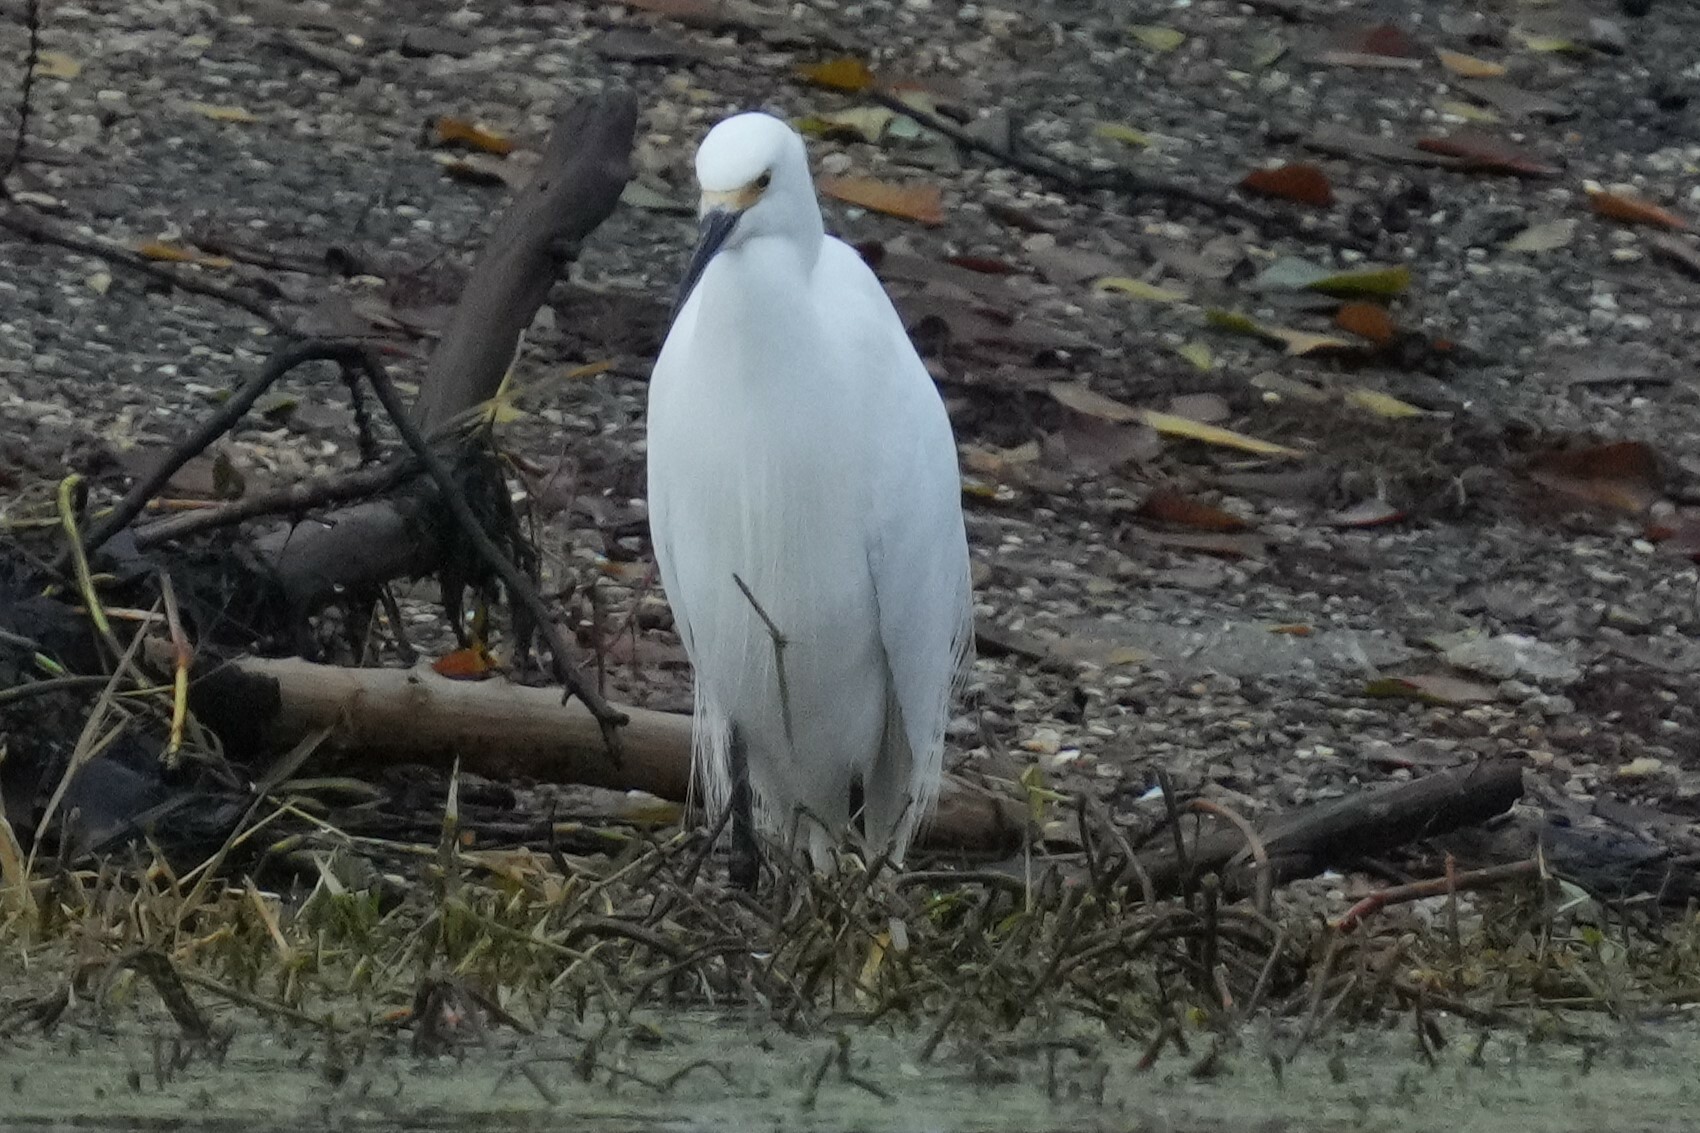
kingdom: Animalia
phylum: Chordata
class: Aves
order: Pelecaniformes
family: Ardeidae
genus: Egretta
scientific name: Egretta thula
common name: Snowy egret
